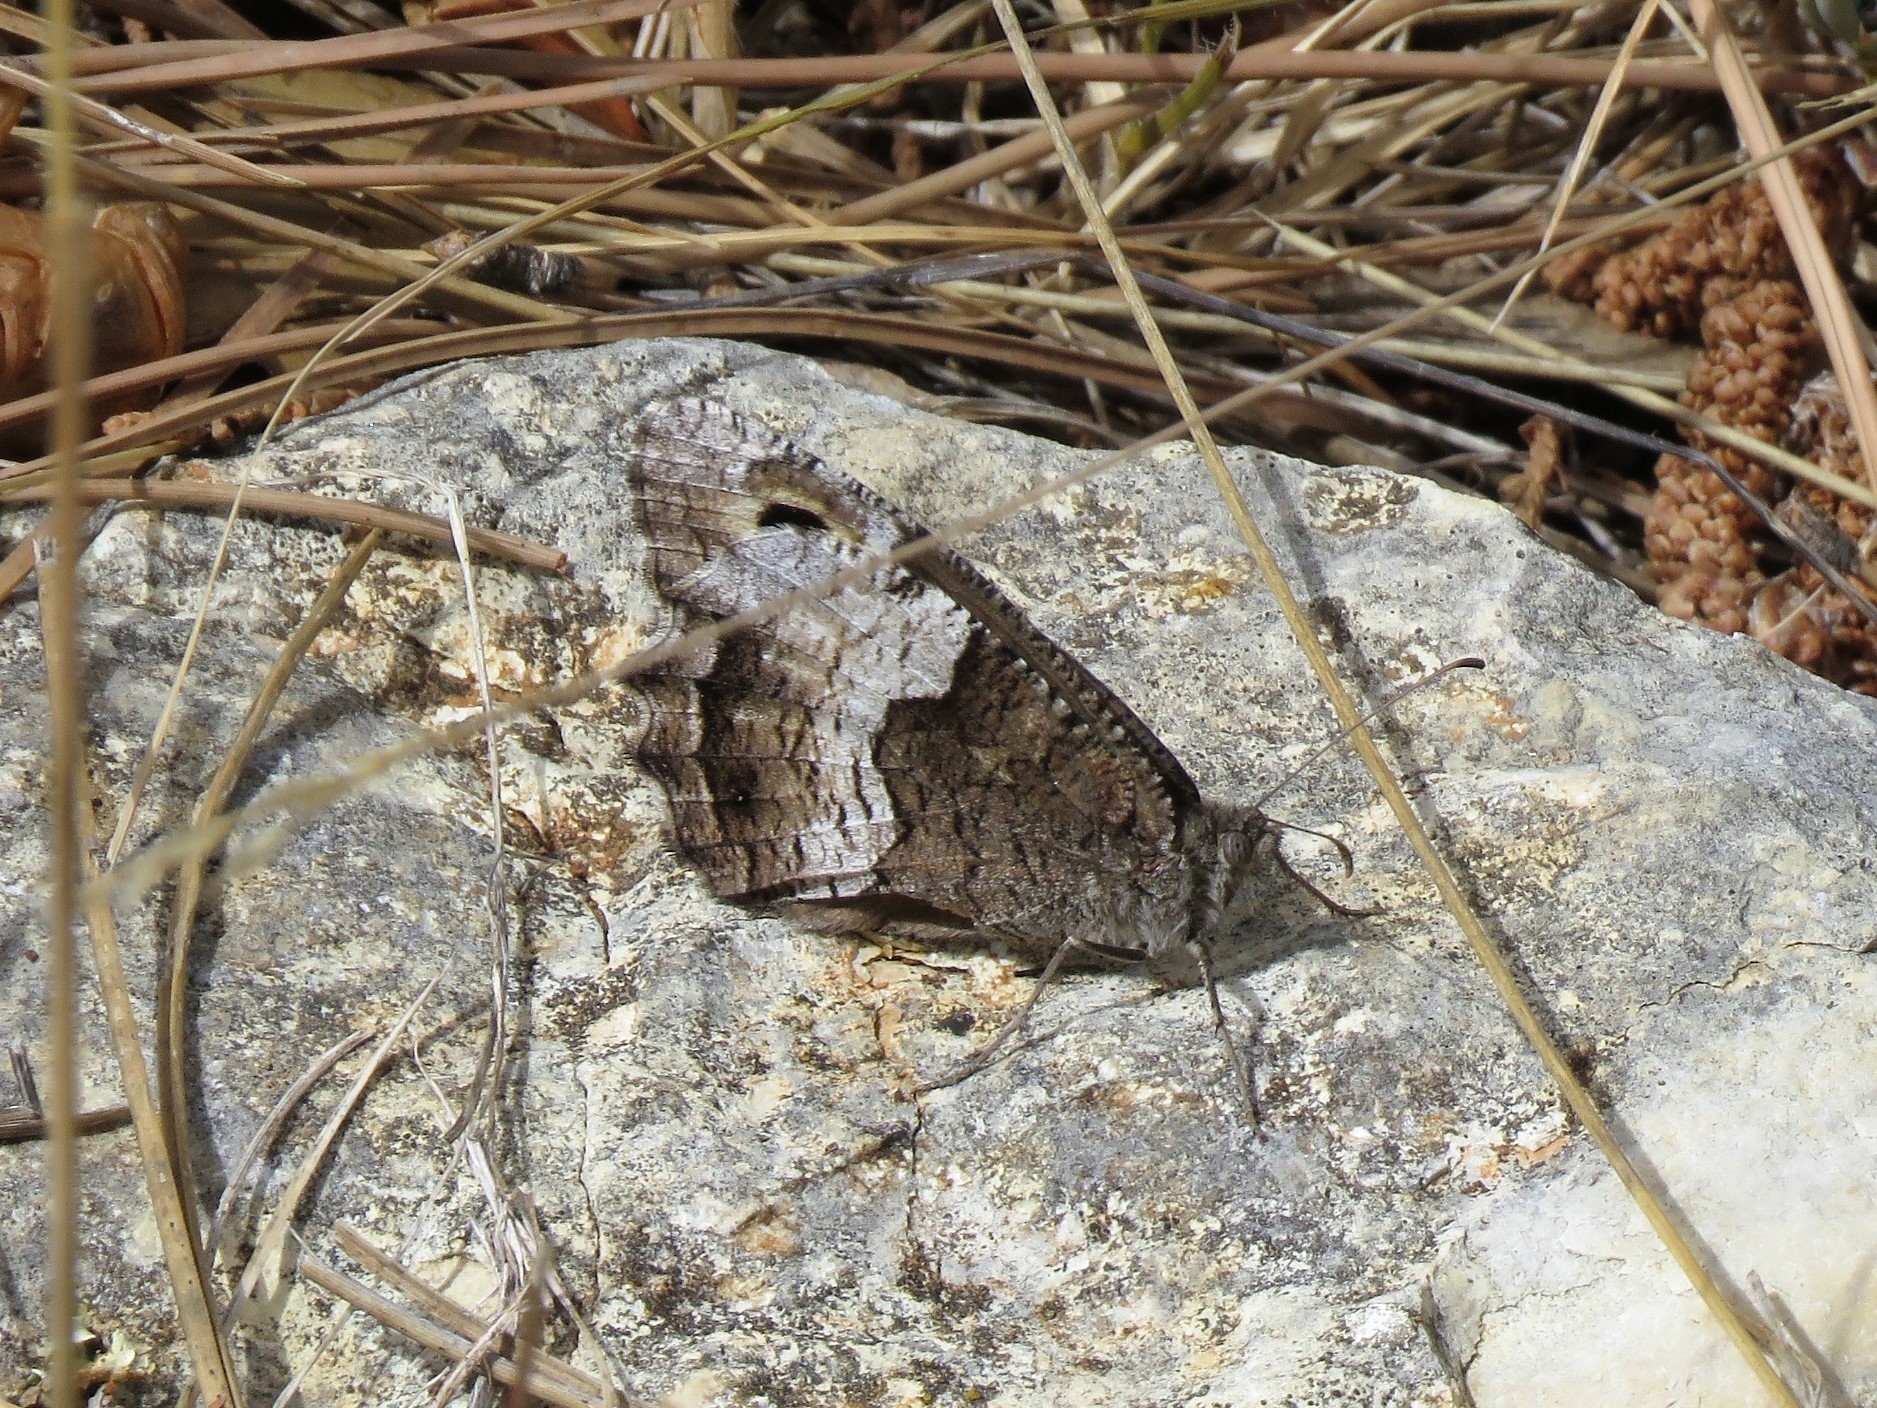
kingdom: Animalia
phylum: Arthropoda
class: Insecta
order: Lepidoptera
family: Nymphalidae
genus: Hipparchia
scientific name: Hipparchia hermione
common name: Rock grayling
